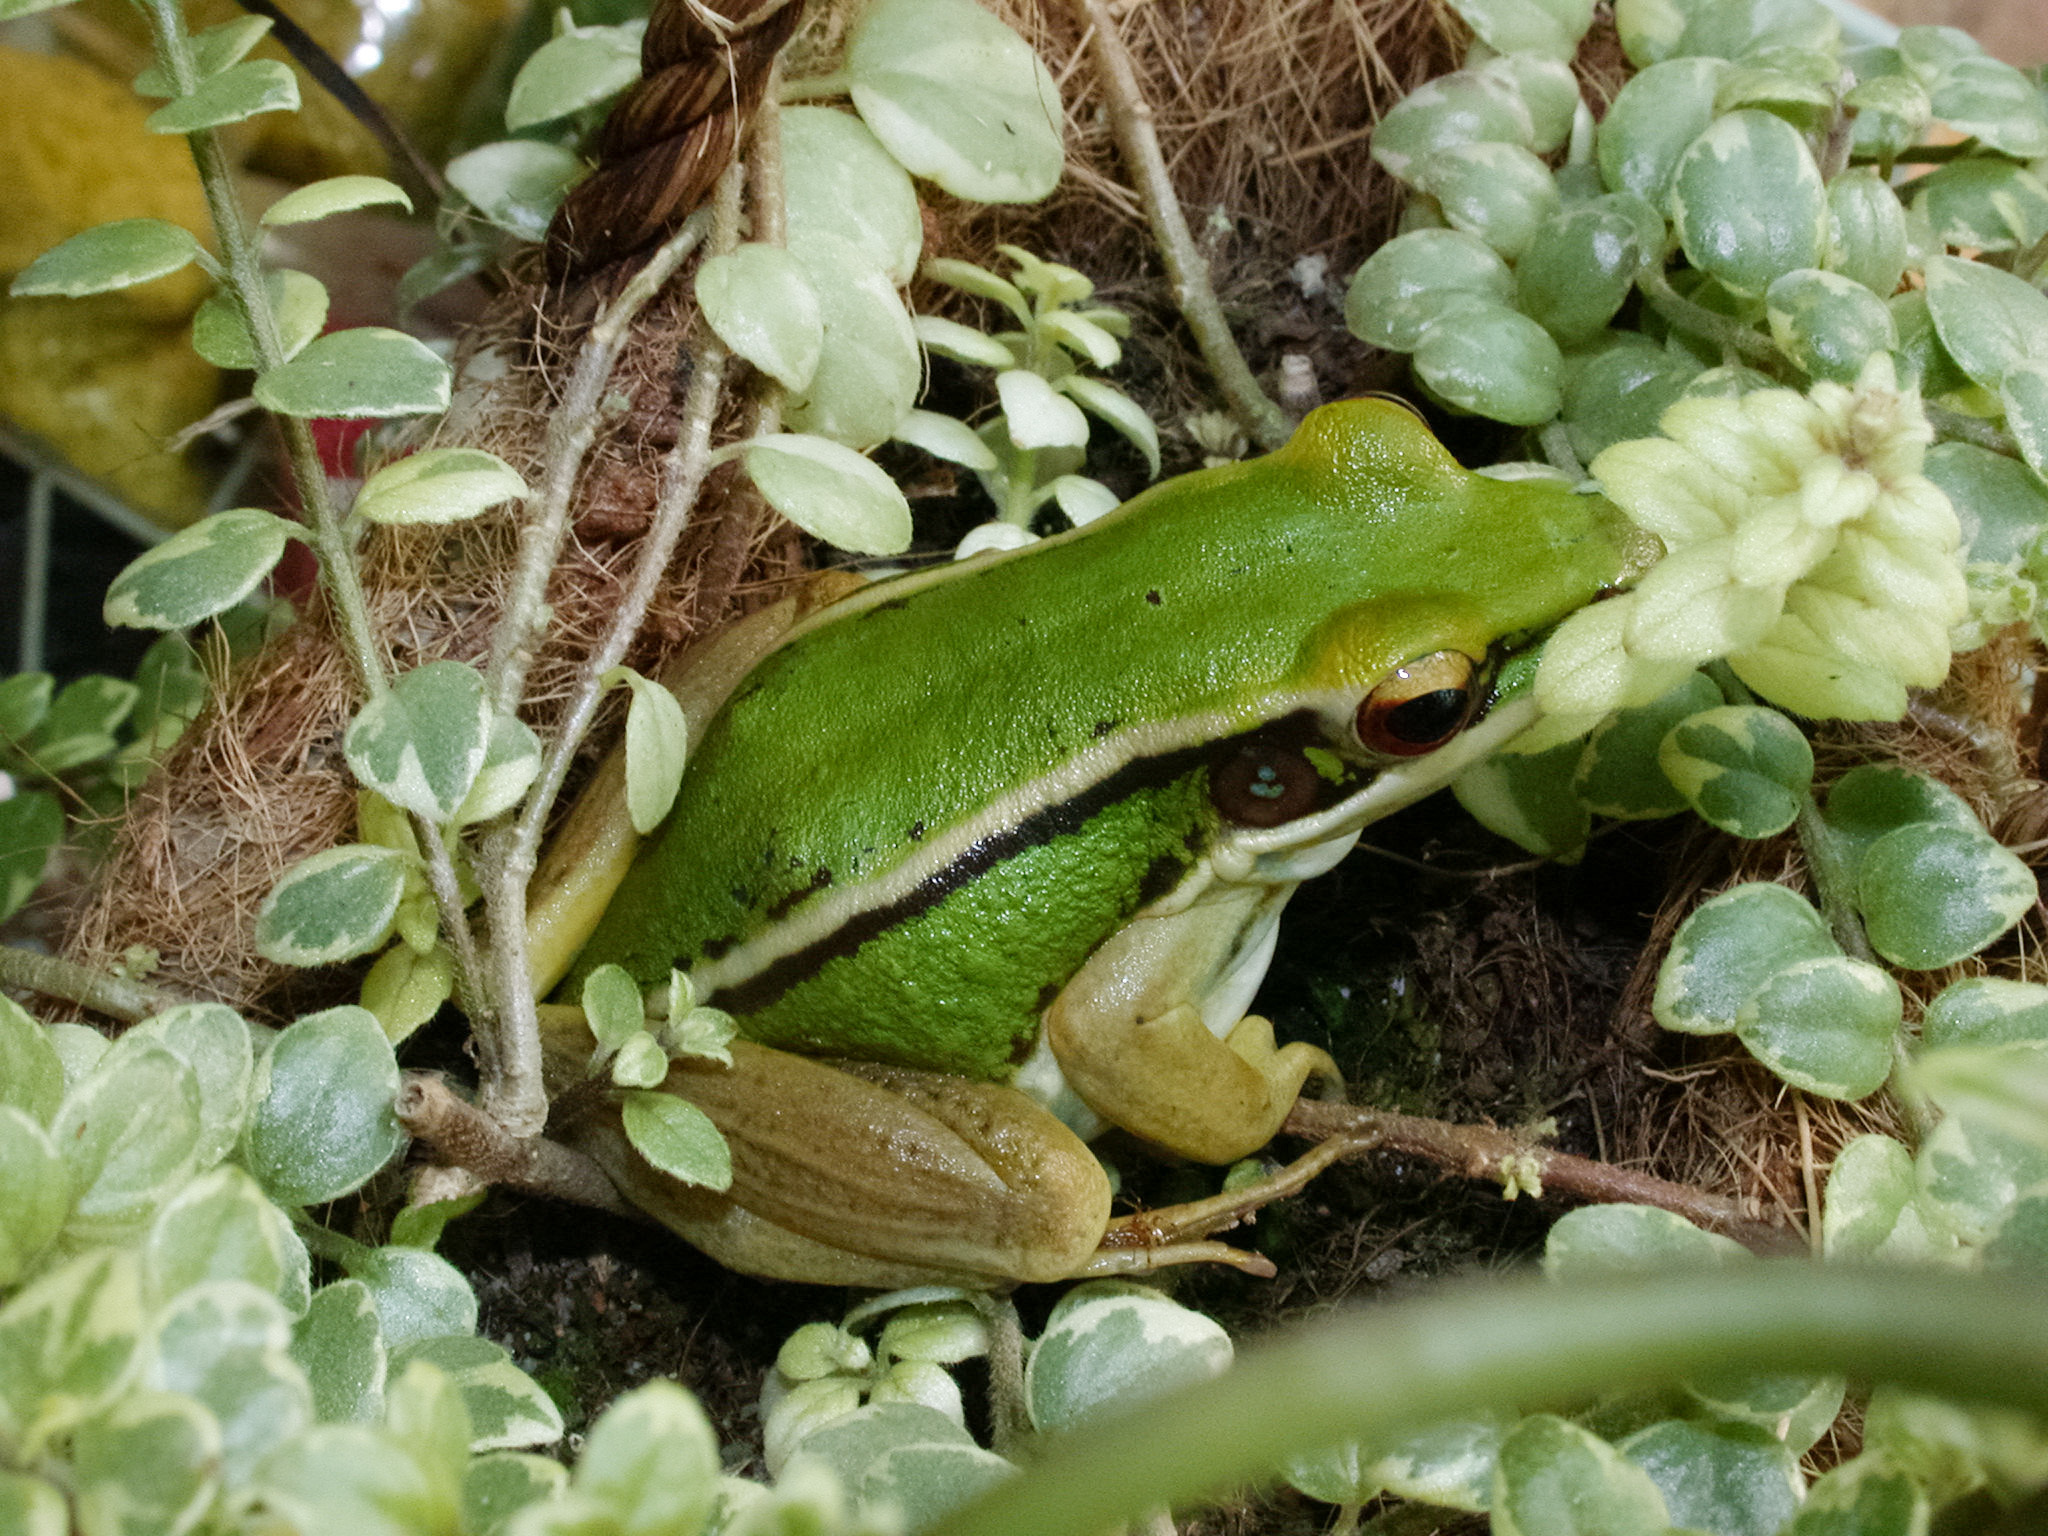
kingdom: Animalia
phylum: Chordata
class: Amphibia
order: Anura
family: Ranidae
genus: Hylarana
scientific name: Hylarana erythraea
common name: Common green frog/green paddy frog/leaf frog
